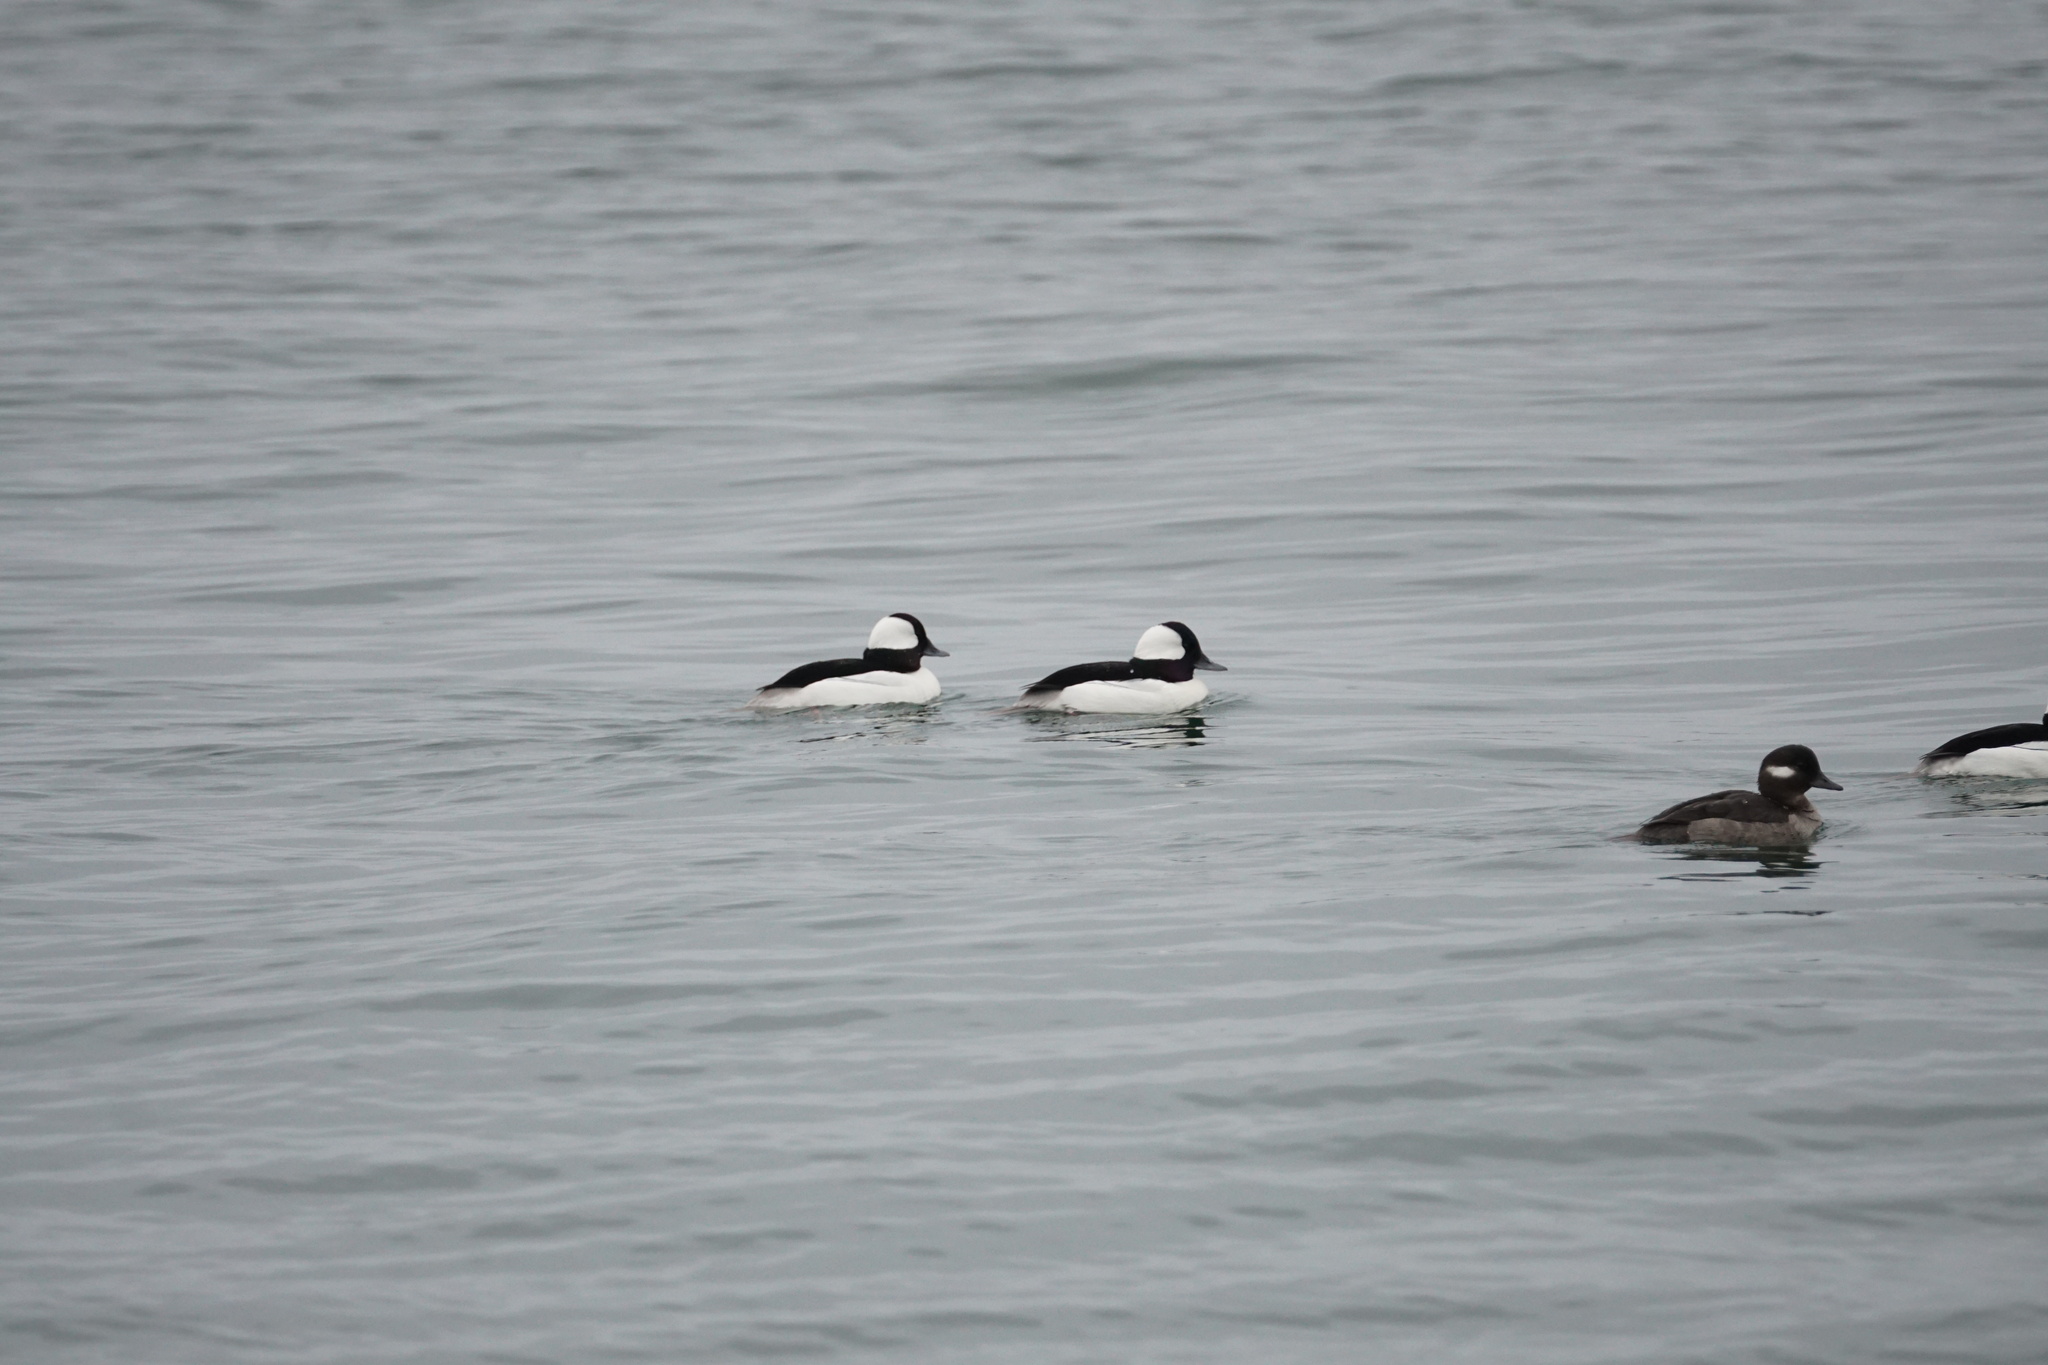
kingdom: Animalia
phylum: Chordata
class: Aves
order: Anseriformes
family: Anatidae
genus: Bucephala
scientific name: Bucephala albeola
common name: Bufflehead
